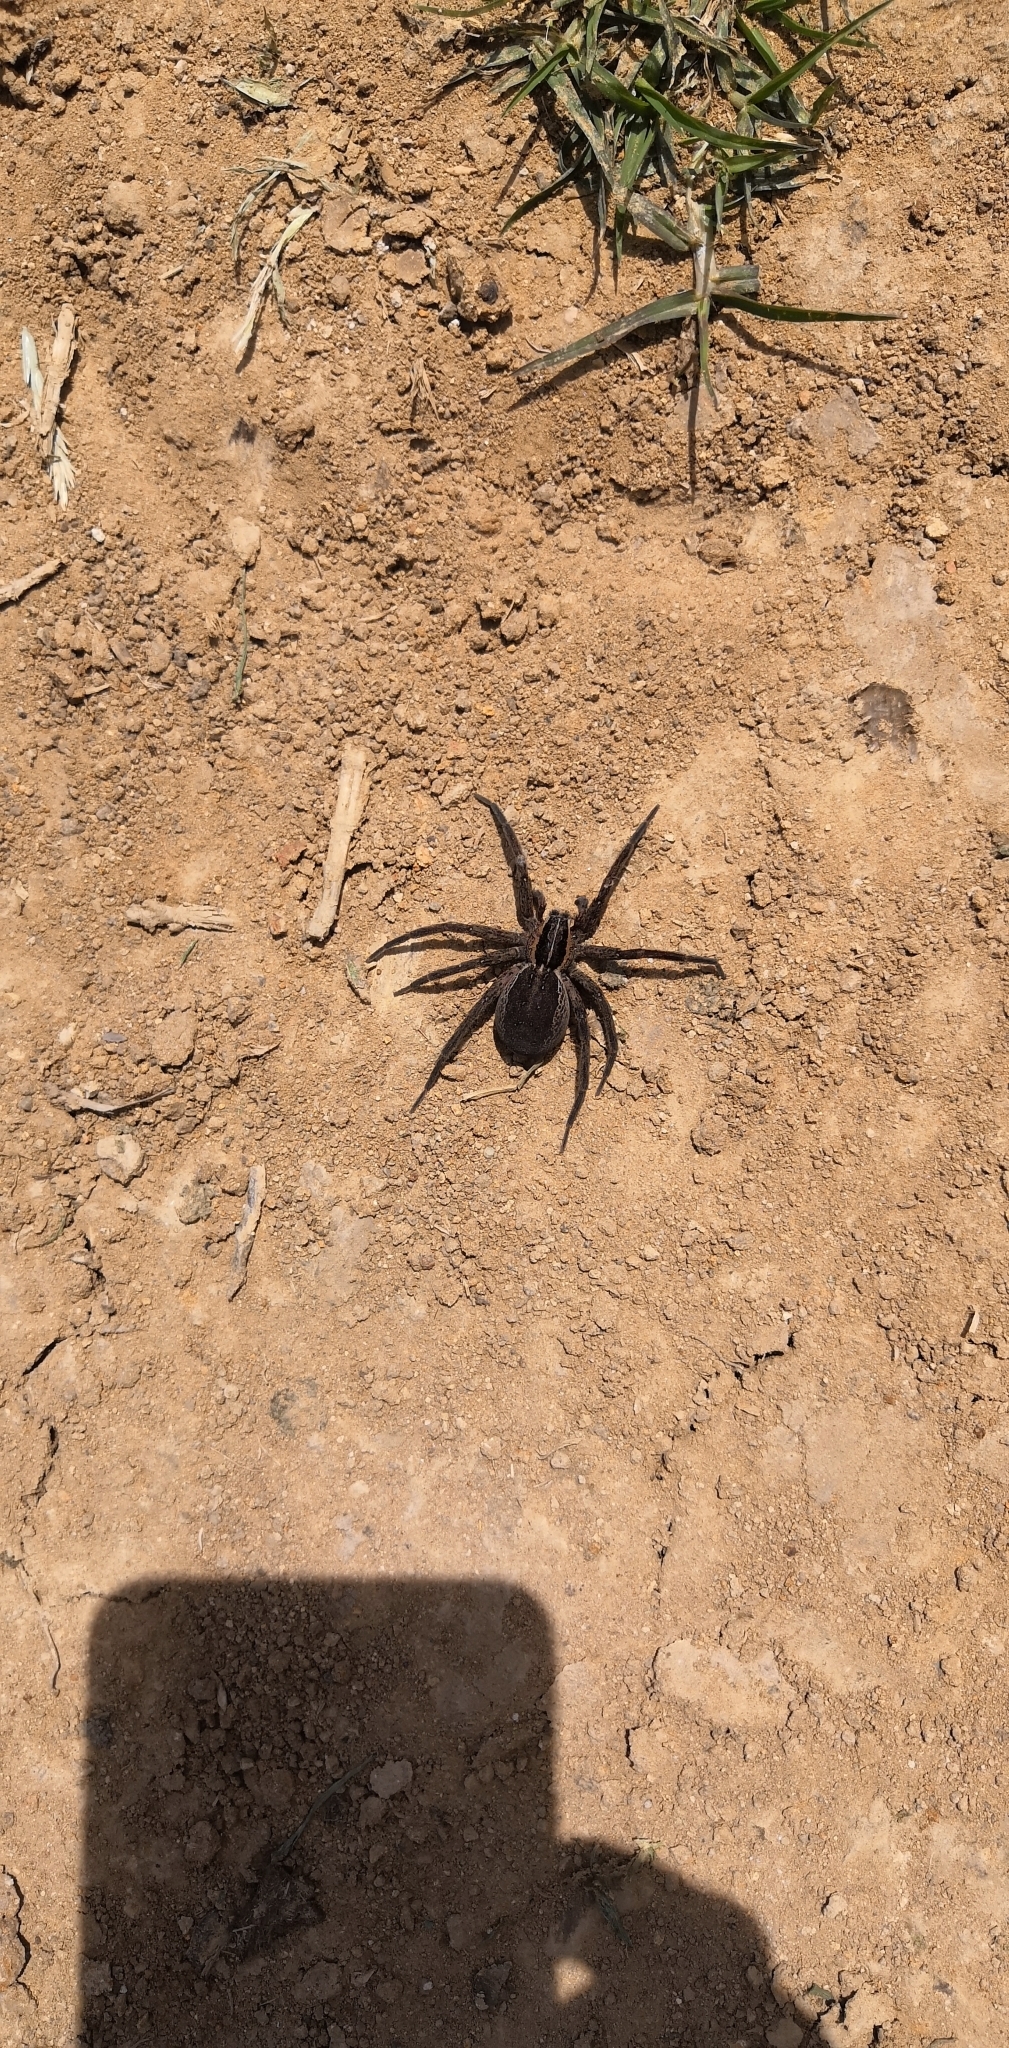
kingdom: Animalia
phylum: Arthropoda
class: Arachnida
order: Araneae
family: Pisauridae
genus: Dolomedes
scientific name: Dolomedes minor
